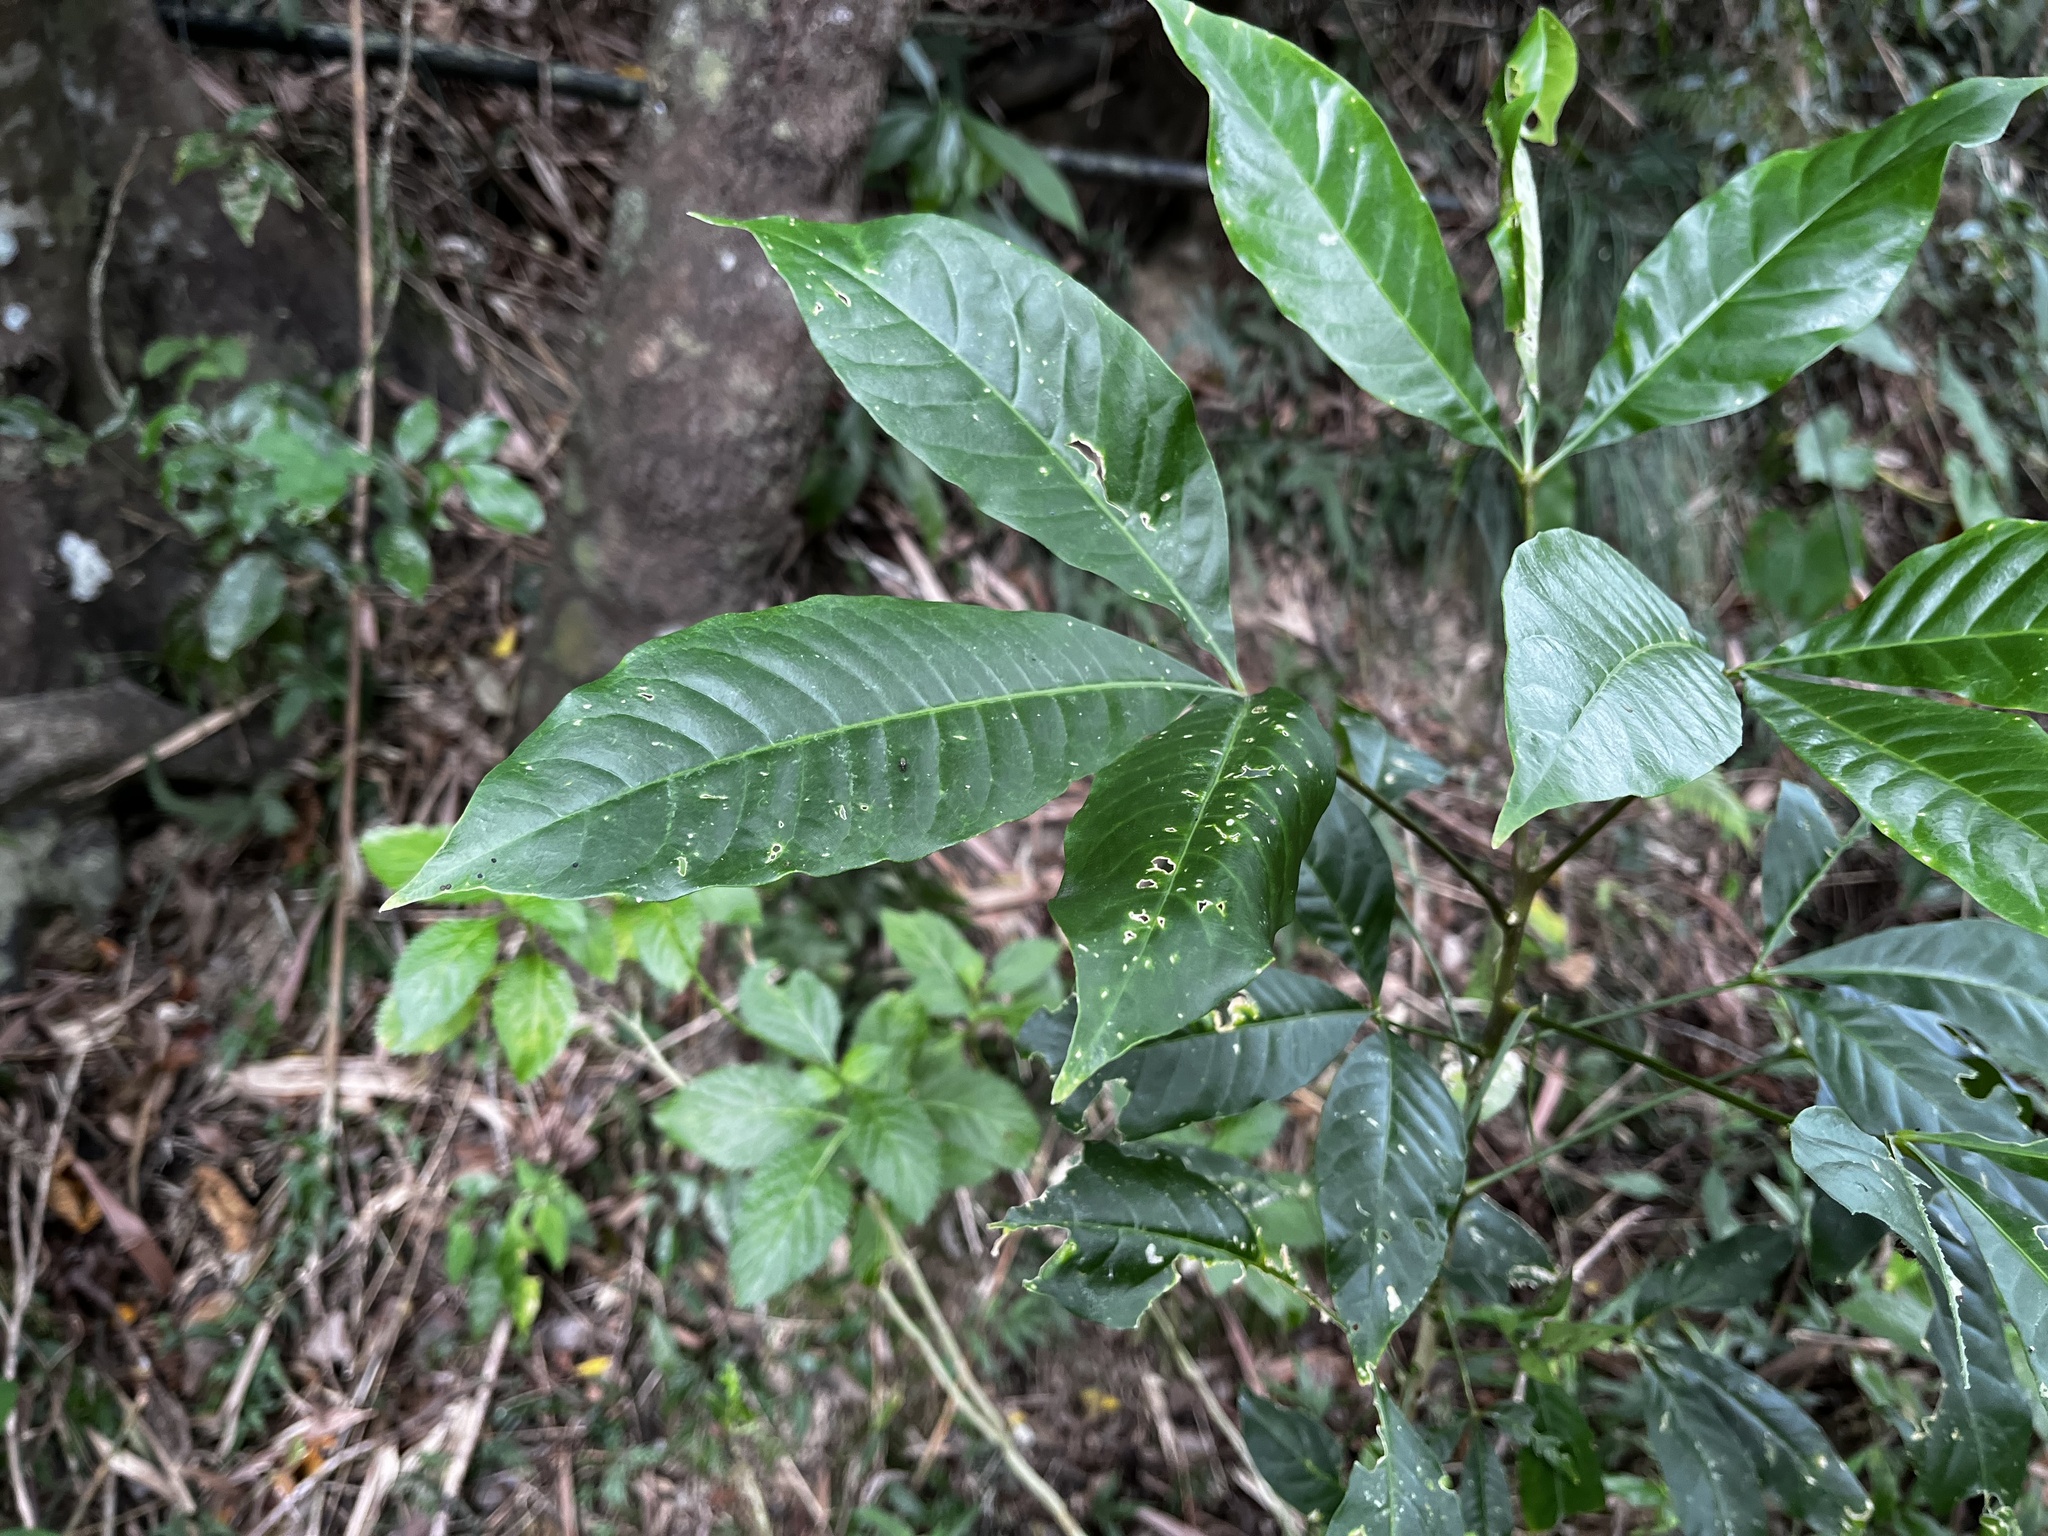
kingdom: Plantae
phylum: Tracheophyta
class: Magnoliopsida
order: Sapindales
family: Rutaceae
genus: Melicope
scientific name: Melicope semecarpifolia
